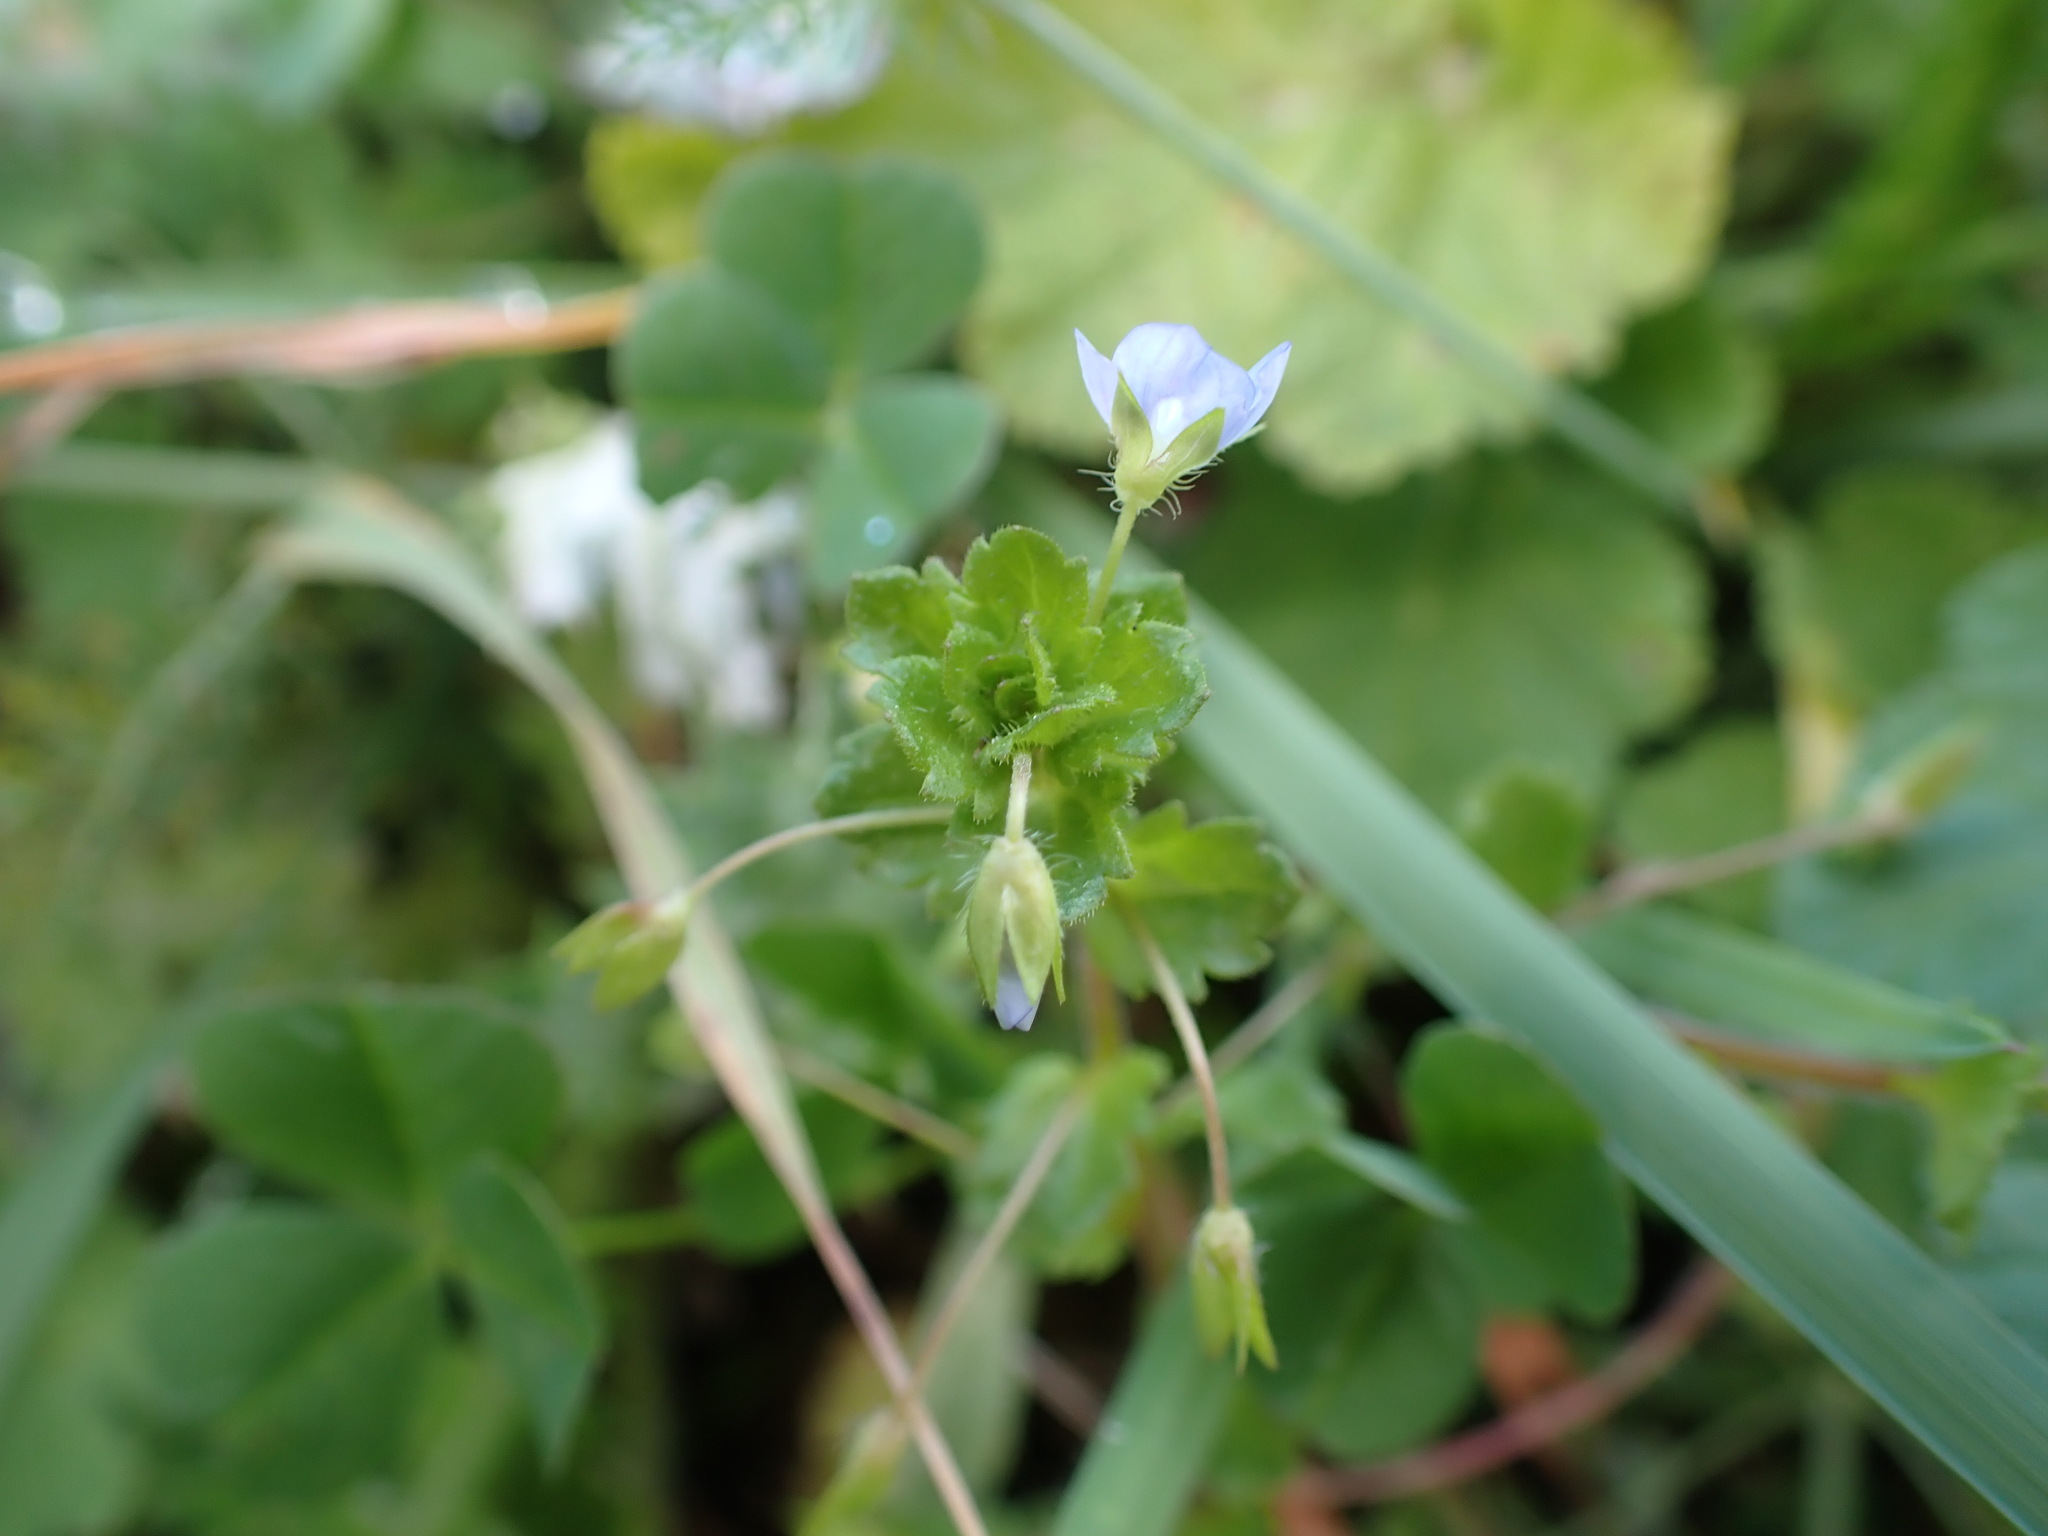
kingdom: Plantae
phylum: Tracheophyta
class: Magnoliopsida
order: Lamiales
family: Plantaginaceae
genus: Veronica
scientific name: Veronica persica
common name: Common field-speedwell
